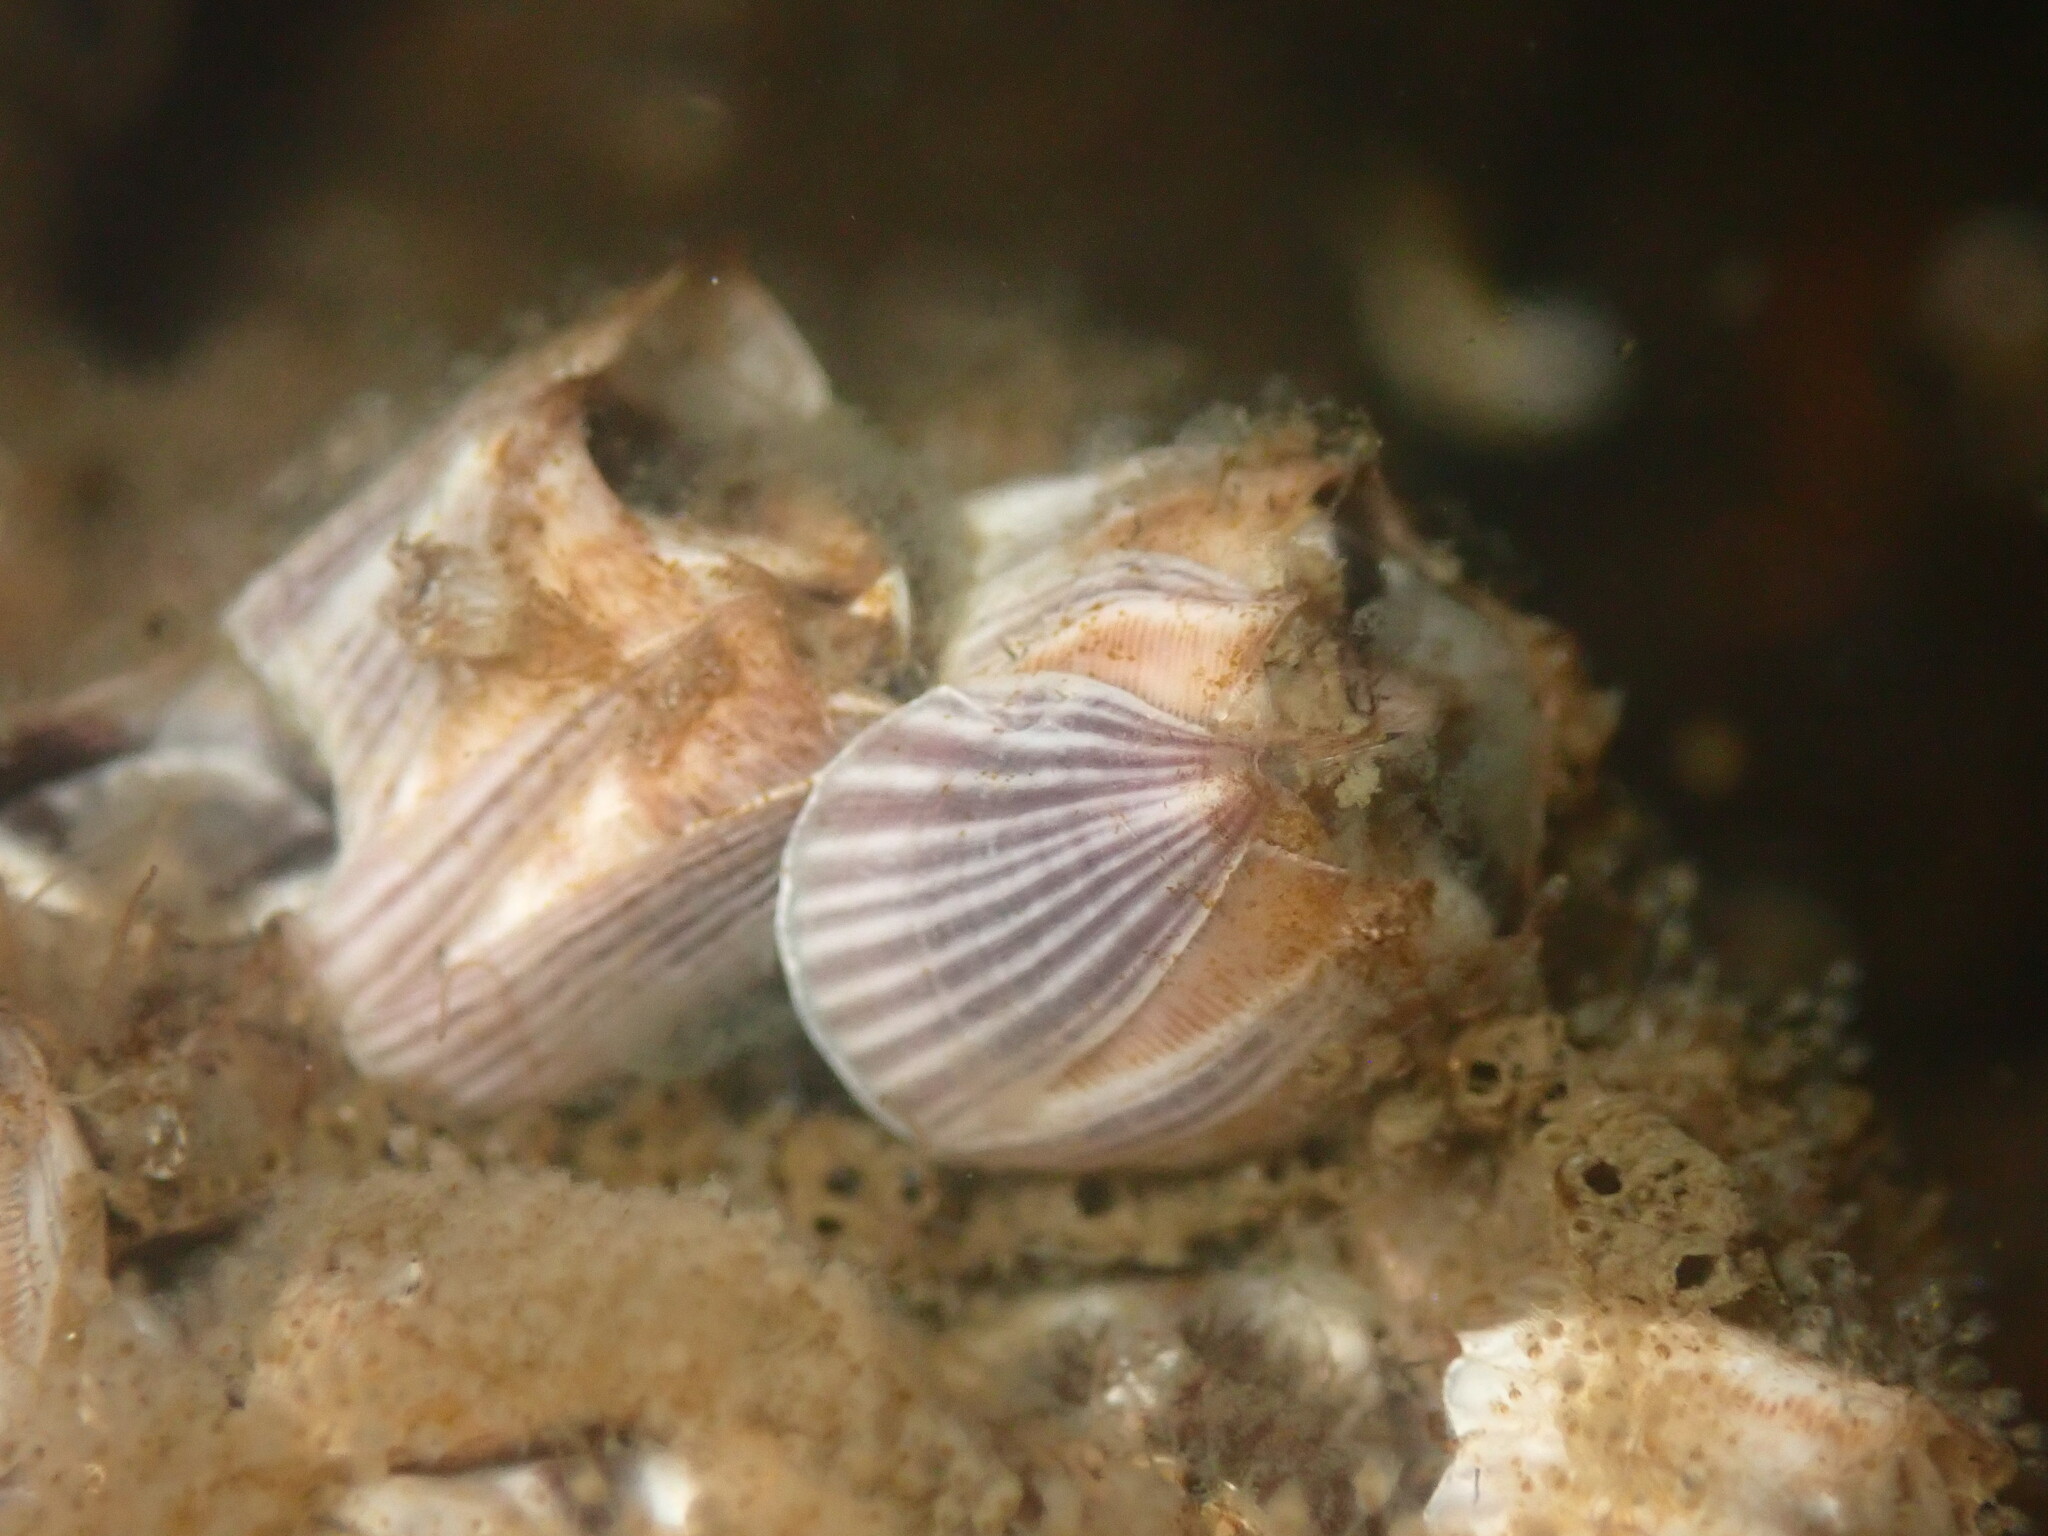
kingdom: Animalia
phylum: Arthropoda
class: Maxillopoda
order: Sessilia
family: Balanidae
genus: Amphibalanus
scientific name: Amphibalanus amphitrite
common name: Striped acorn barnacle
